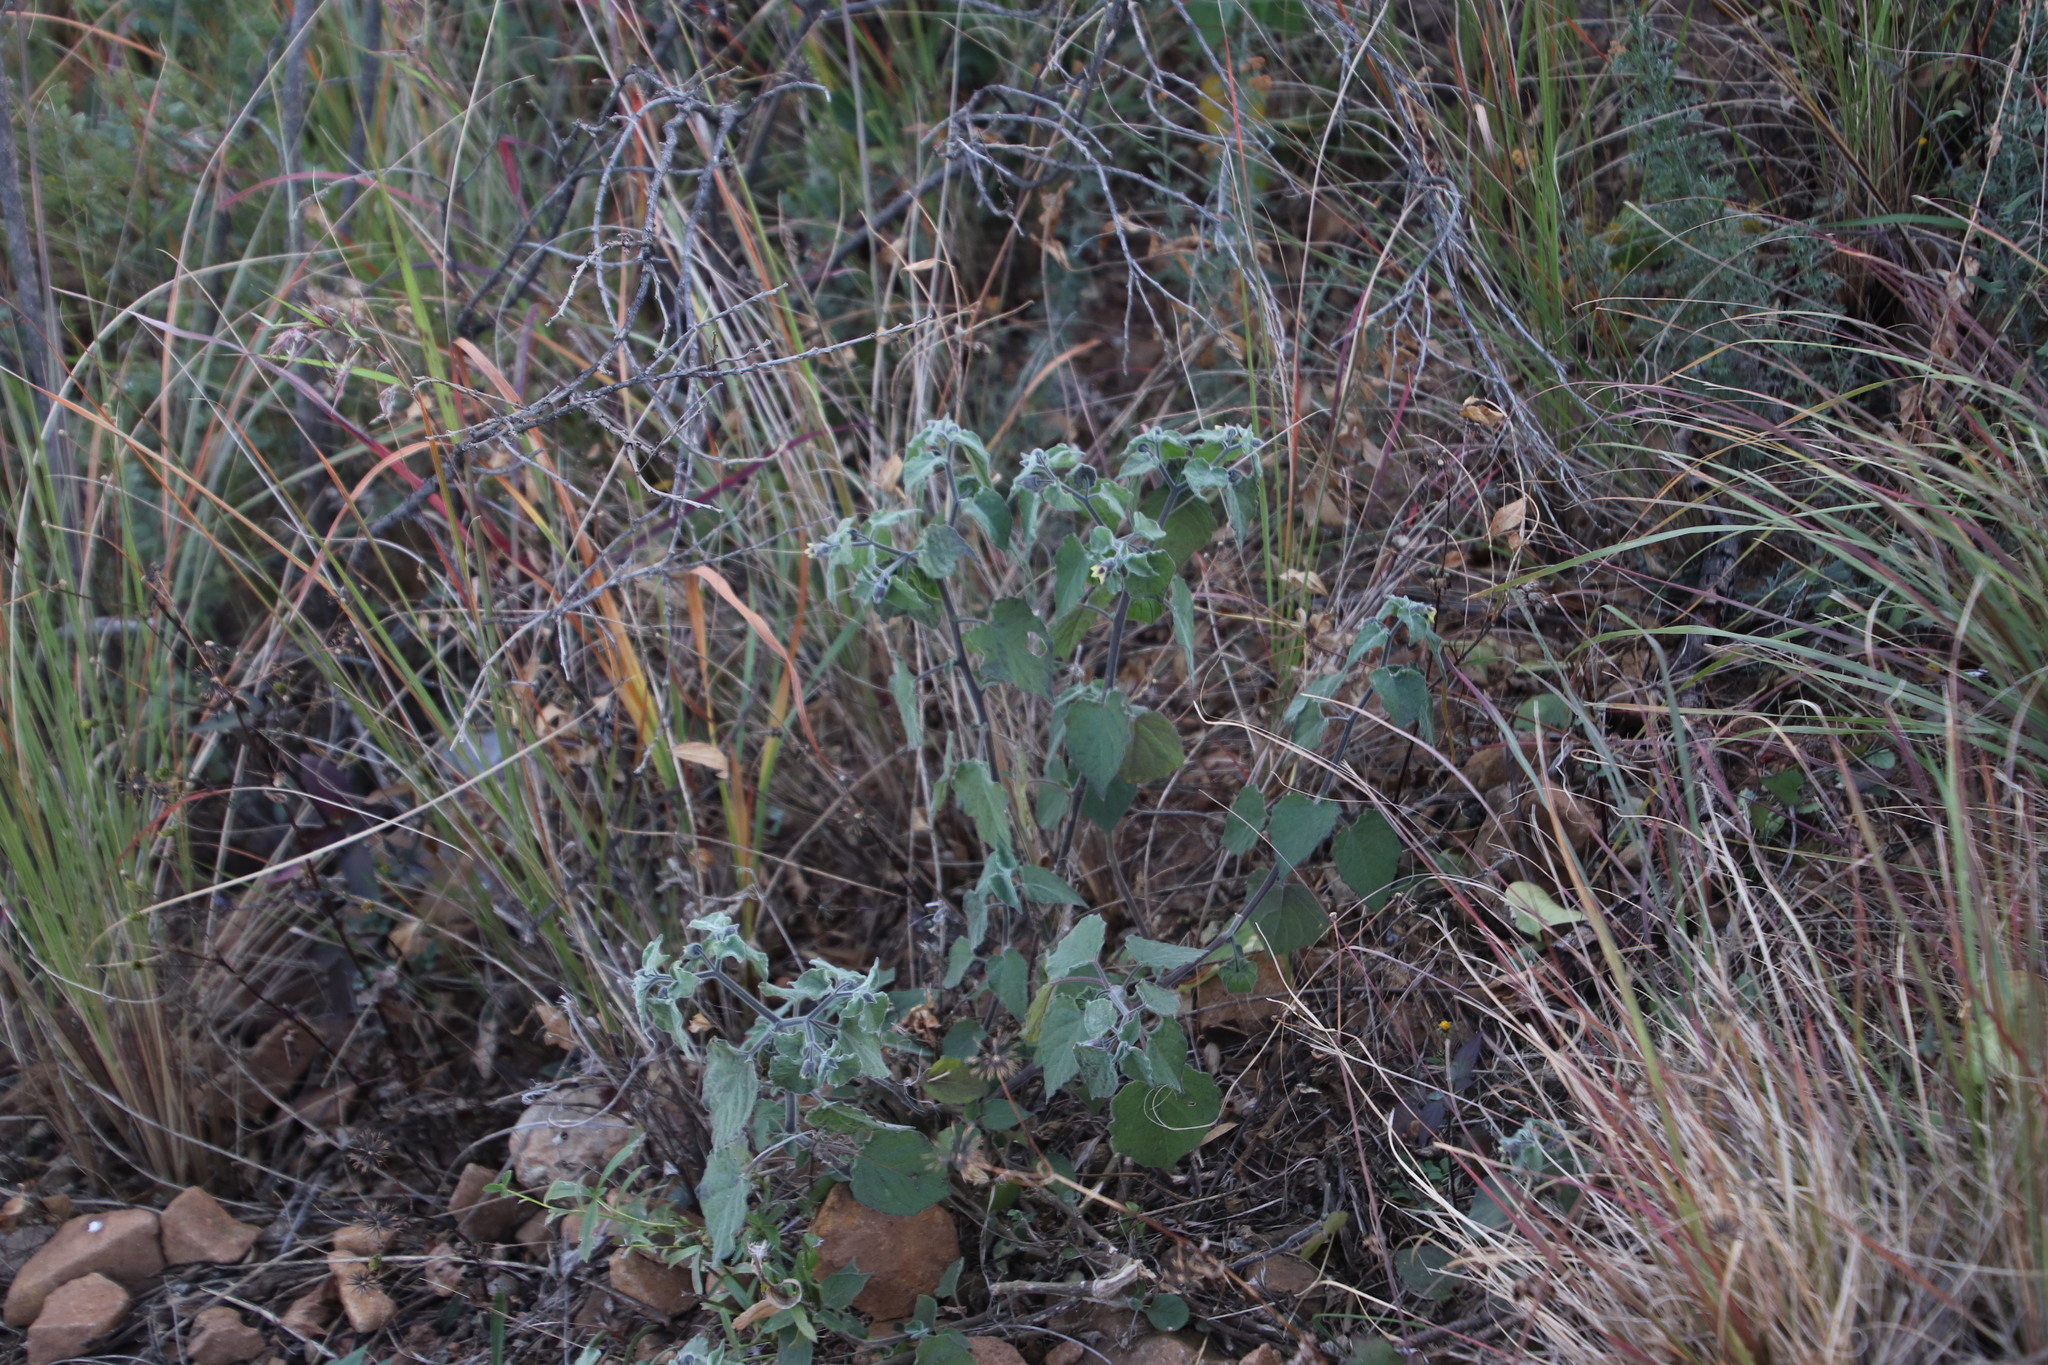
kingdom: Plantae
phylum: Tracheophyta
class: Magnoliopsida
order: Solanales
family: Solanaceae
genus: Physalis
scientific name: Physalis peruviana
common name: Cape-gooseberry
